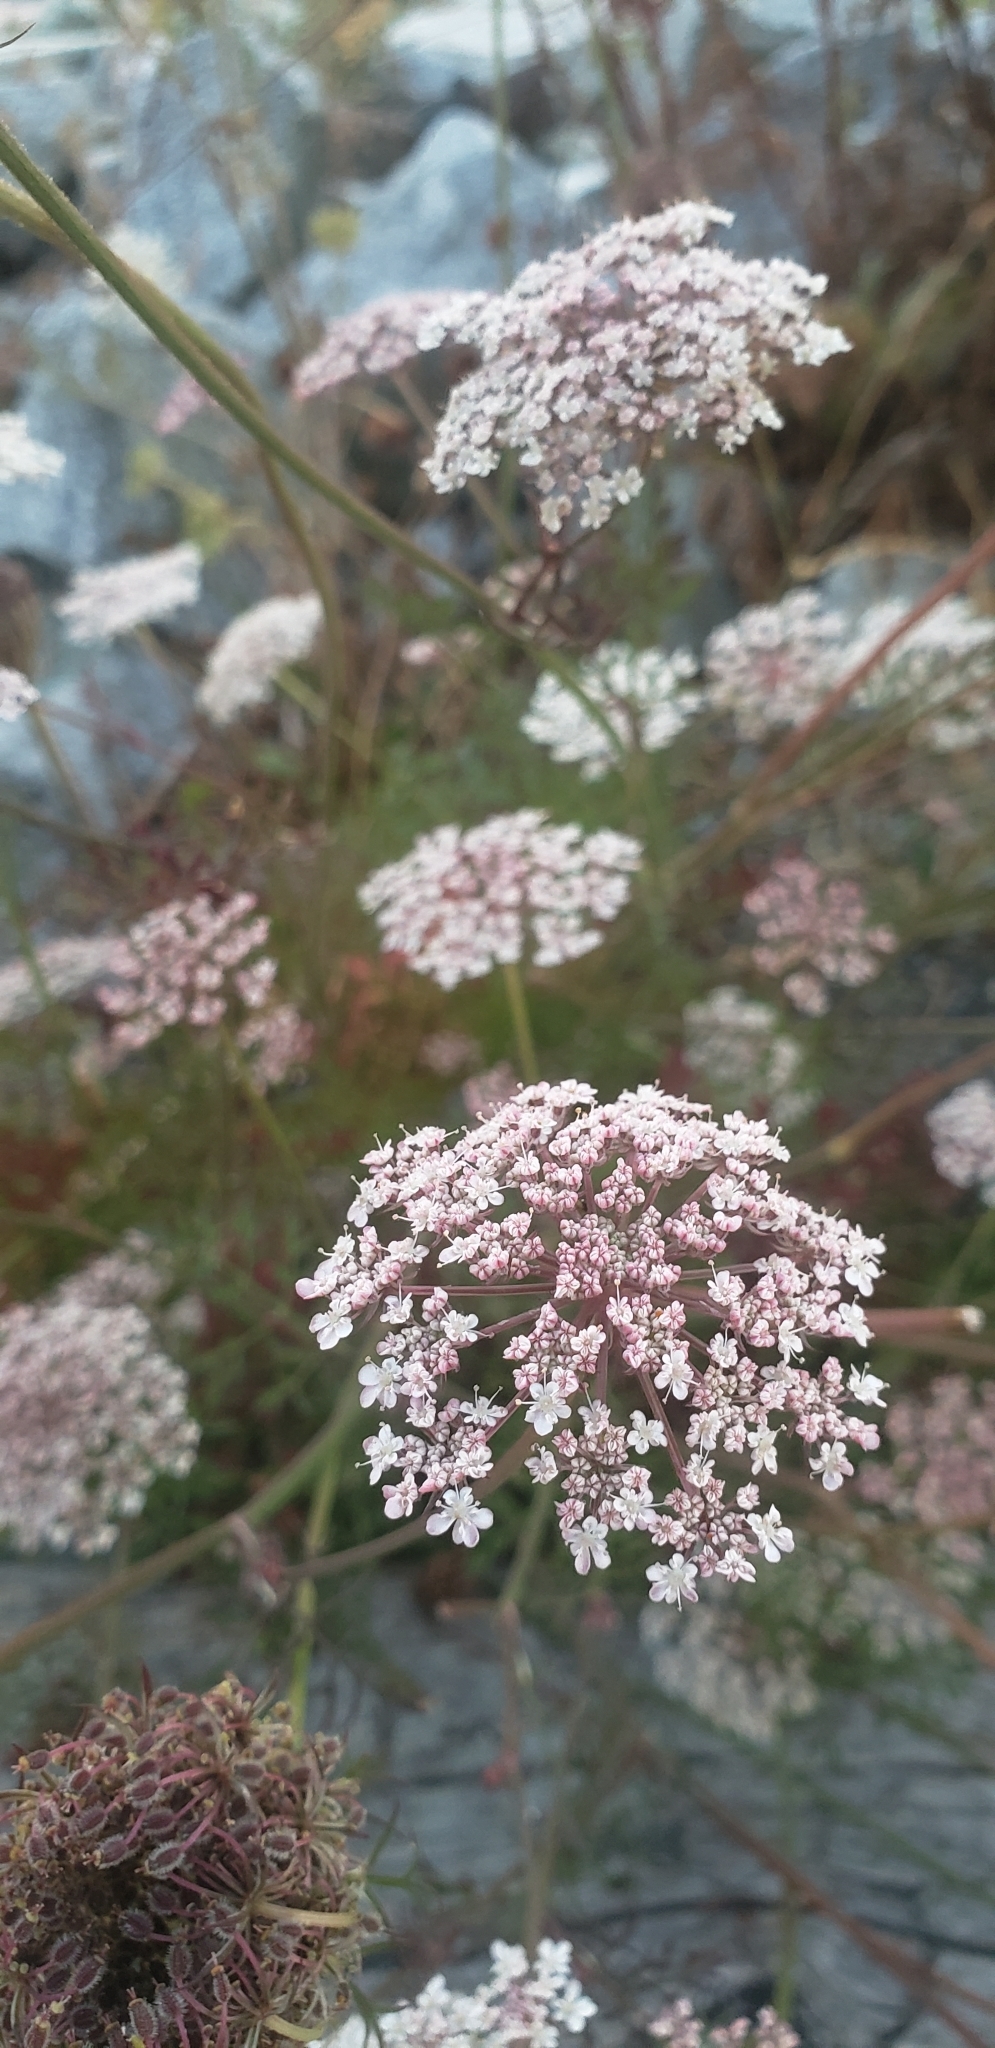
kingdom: Plantae
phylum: Tracheophyta
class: Magnoliopsida
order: Apiales
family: Apiaceae
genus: Daucus
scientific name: Daucus carota
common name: Wild carrot
